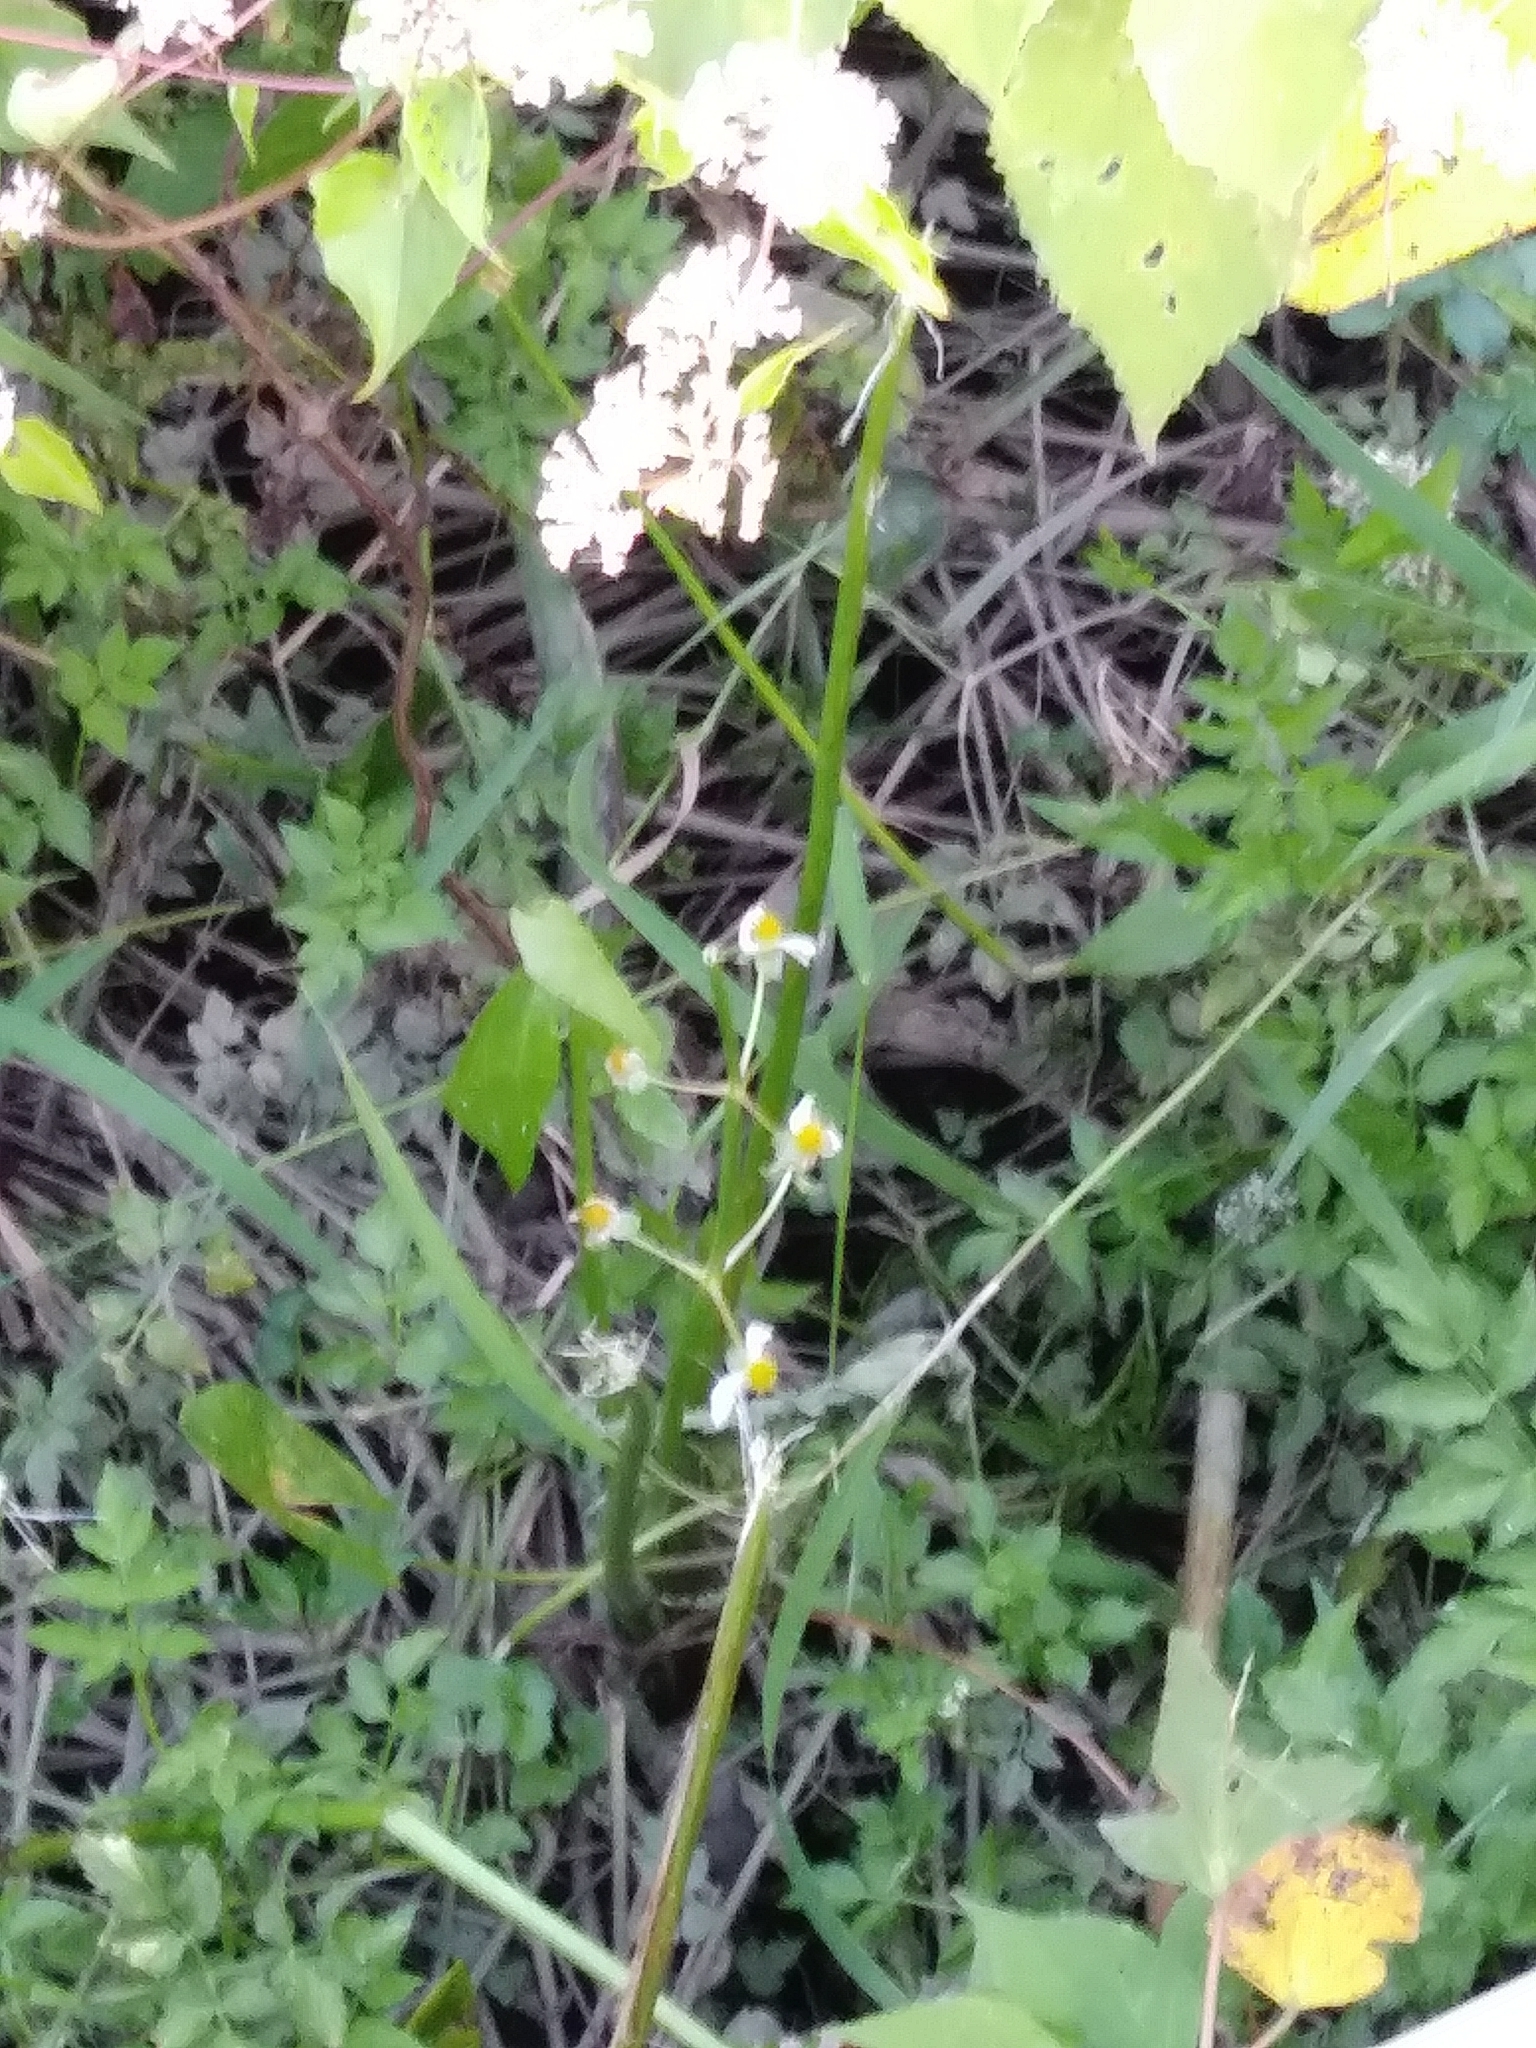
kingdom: Plantae
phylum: Tracheophyta
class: Liliopsida
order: Alismatales
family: Alismataceae
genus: Sagittaria
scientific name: Sagittaria latifolia
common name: Duck-potato
